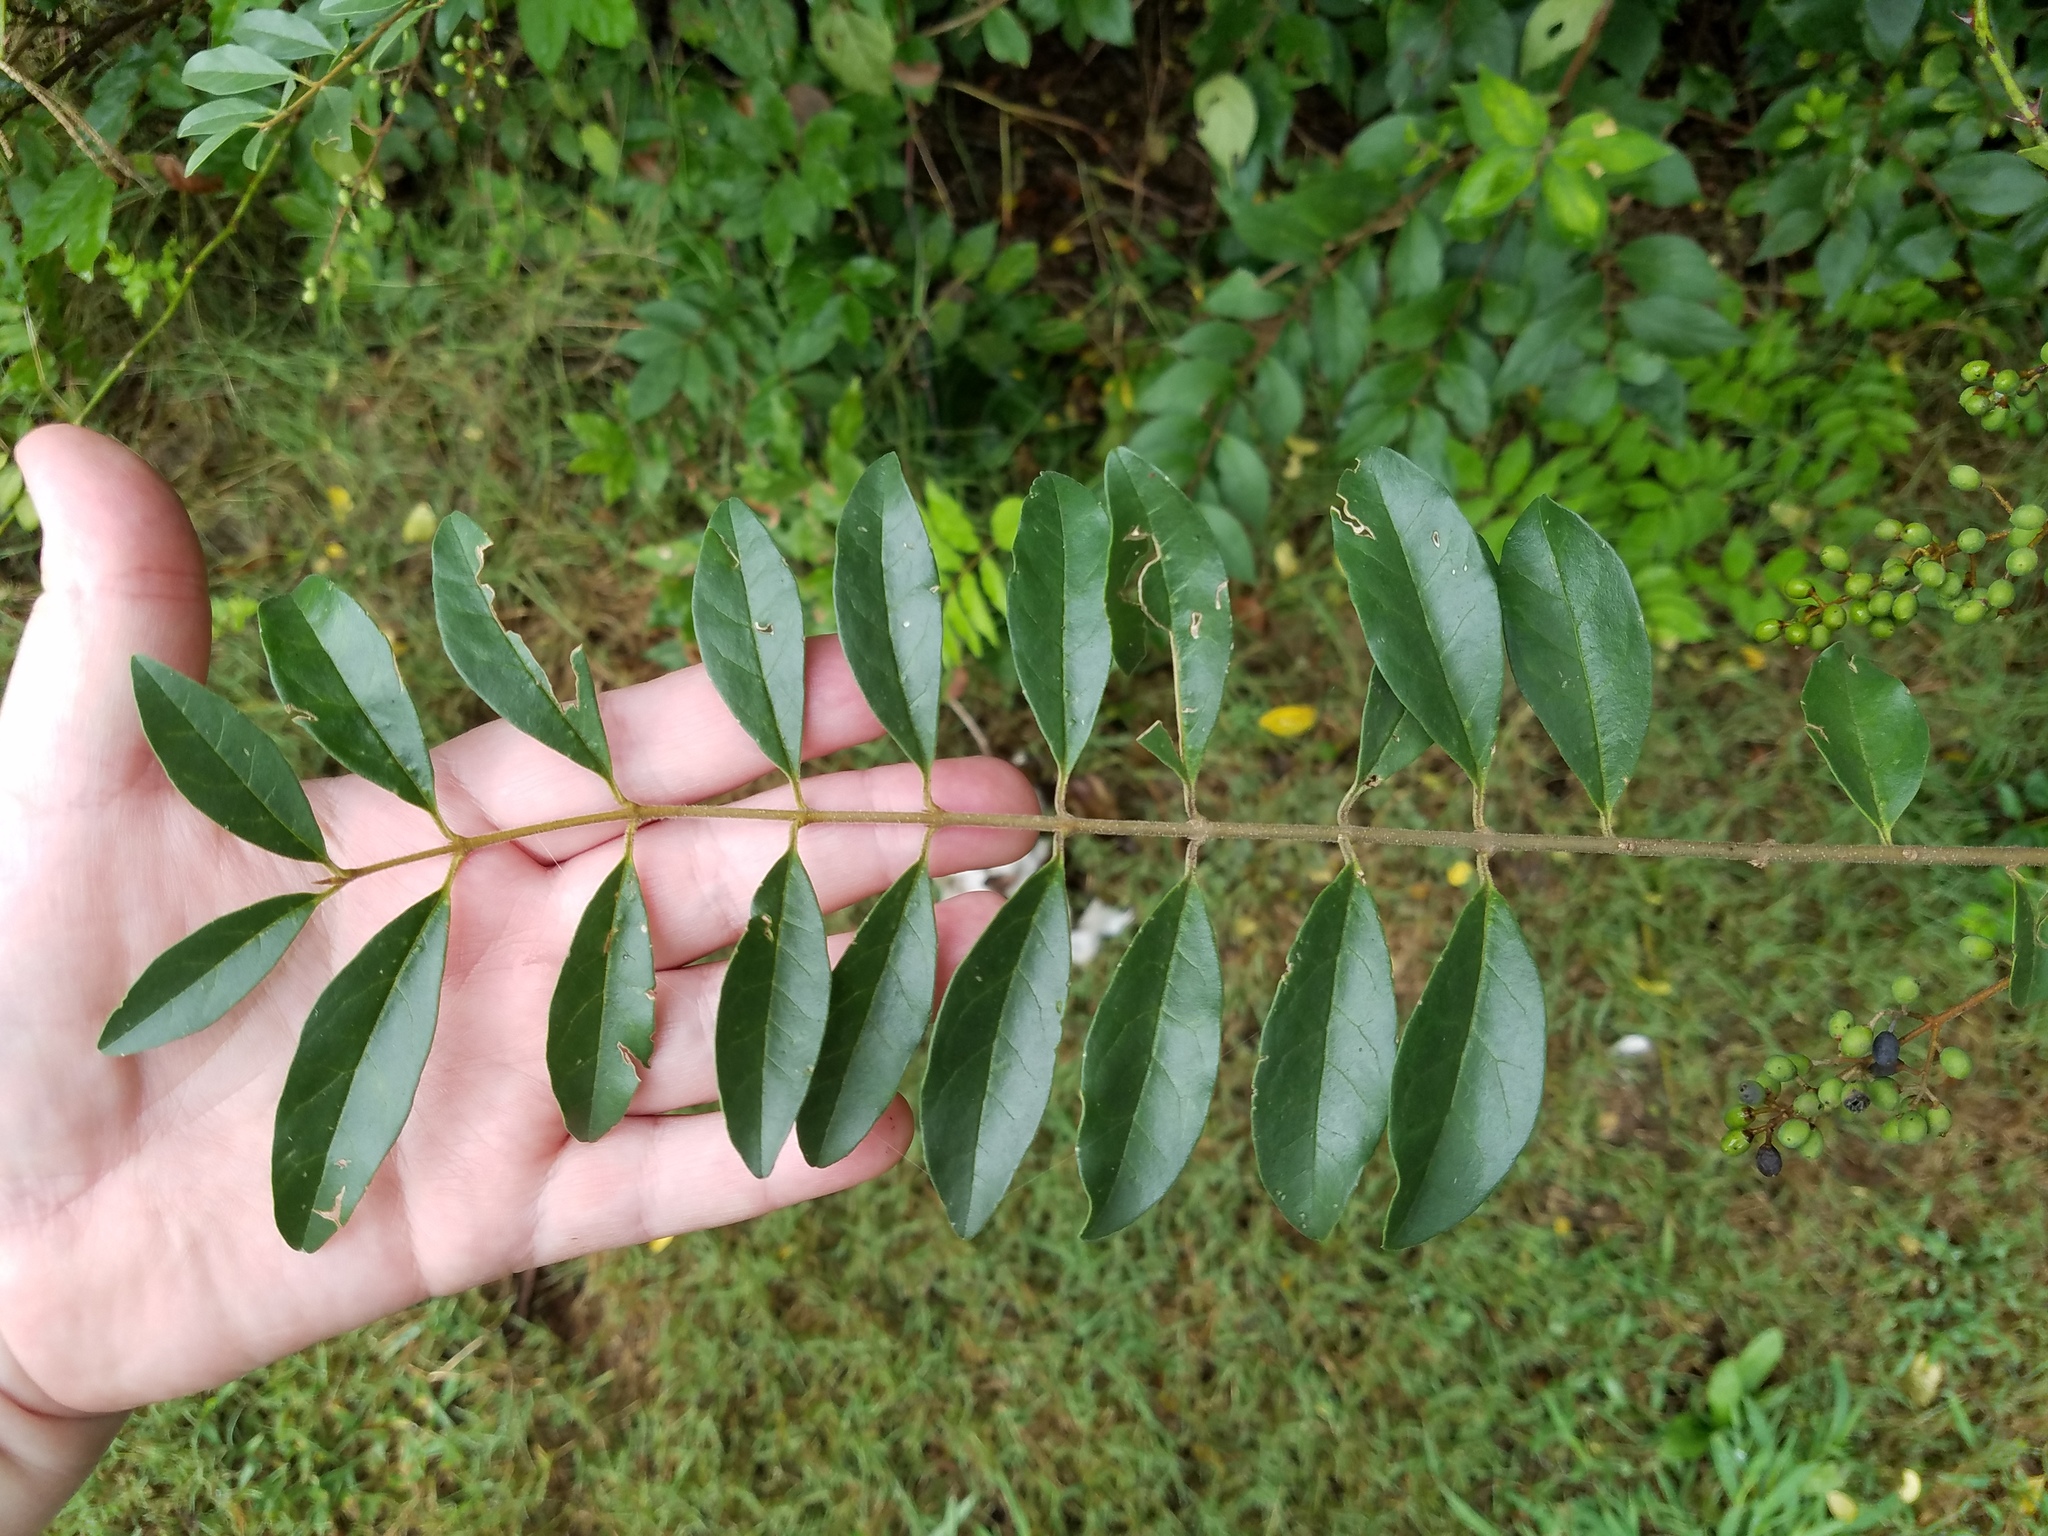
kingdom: Plantae
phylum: Tracheophyta
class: Magnoliopsida
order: Lamiales
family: Oleaceae
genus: Ligustrum
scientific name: Ligustrum sinense
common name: Chinese privet
